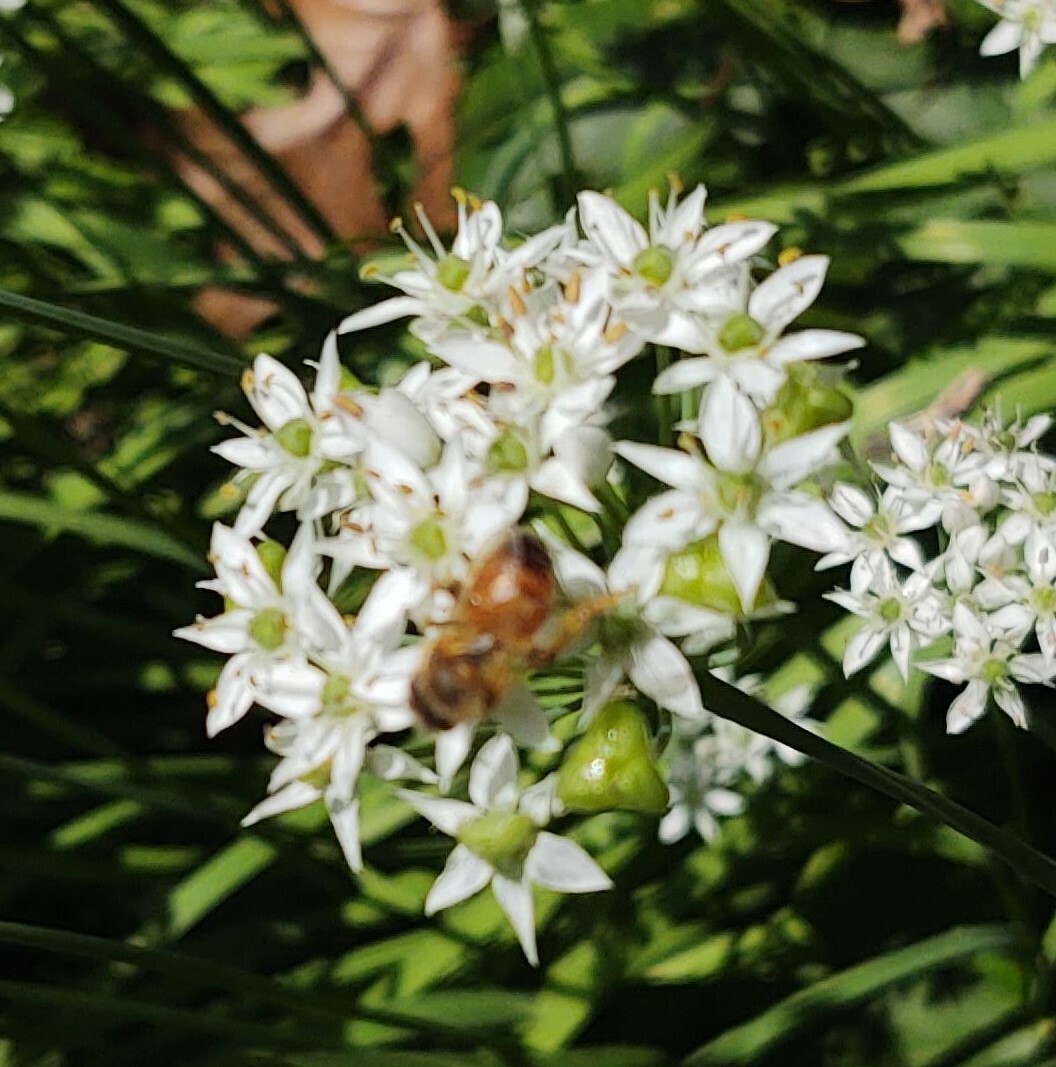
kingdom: Animalia
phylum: Arthropoda
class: Insecta
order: Hymenoptera
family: Apidae
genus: Apis
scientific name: Apis mellifera
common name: Honey bee
